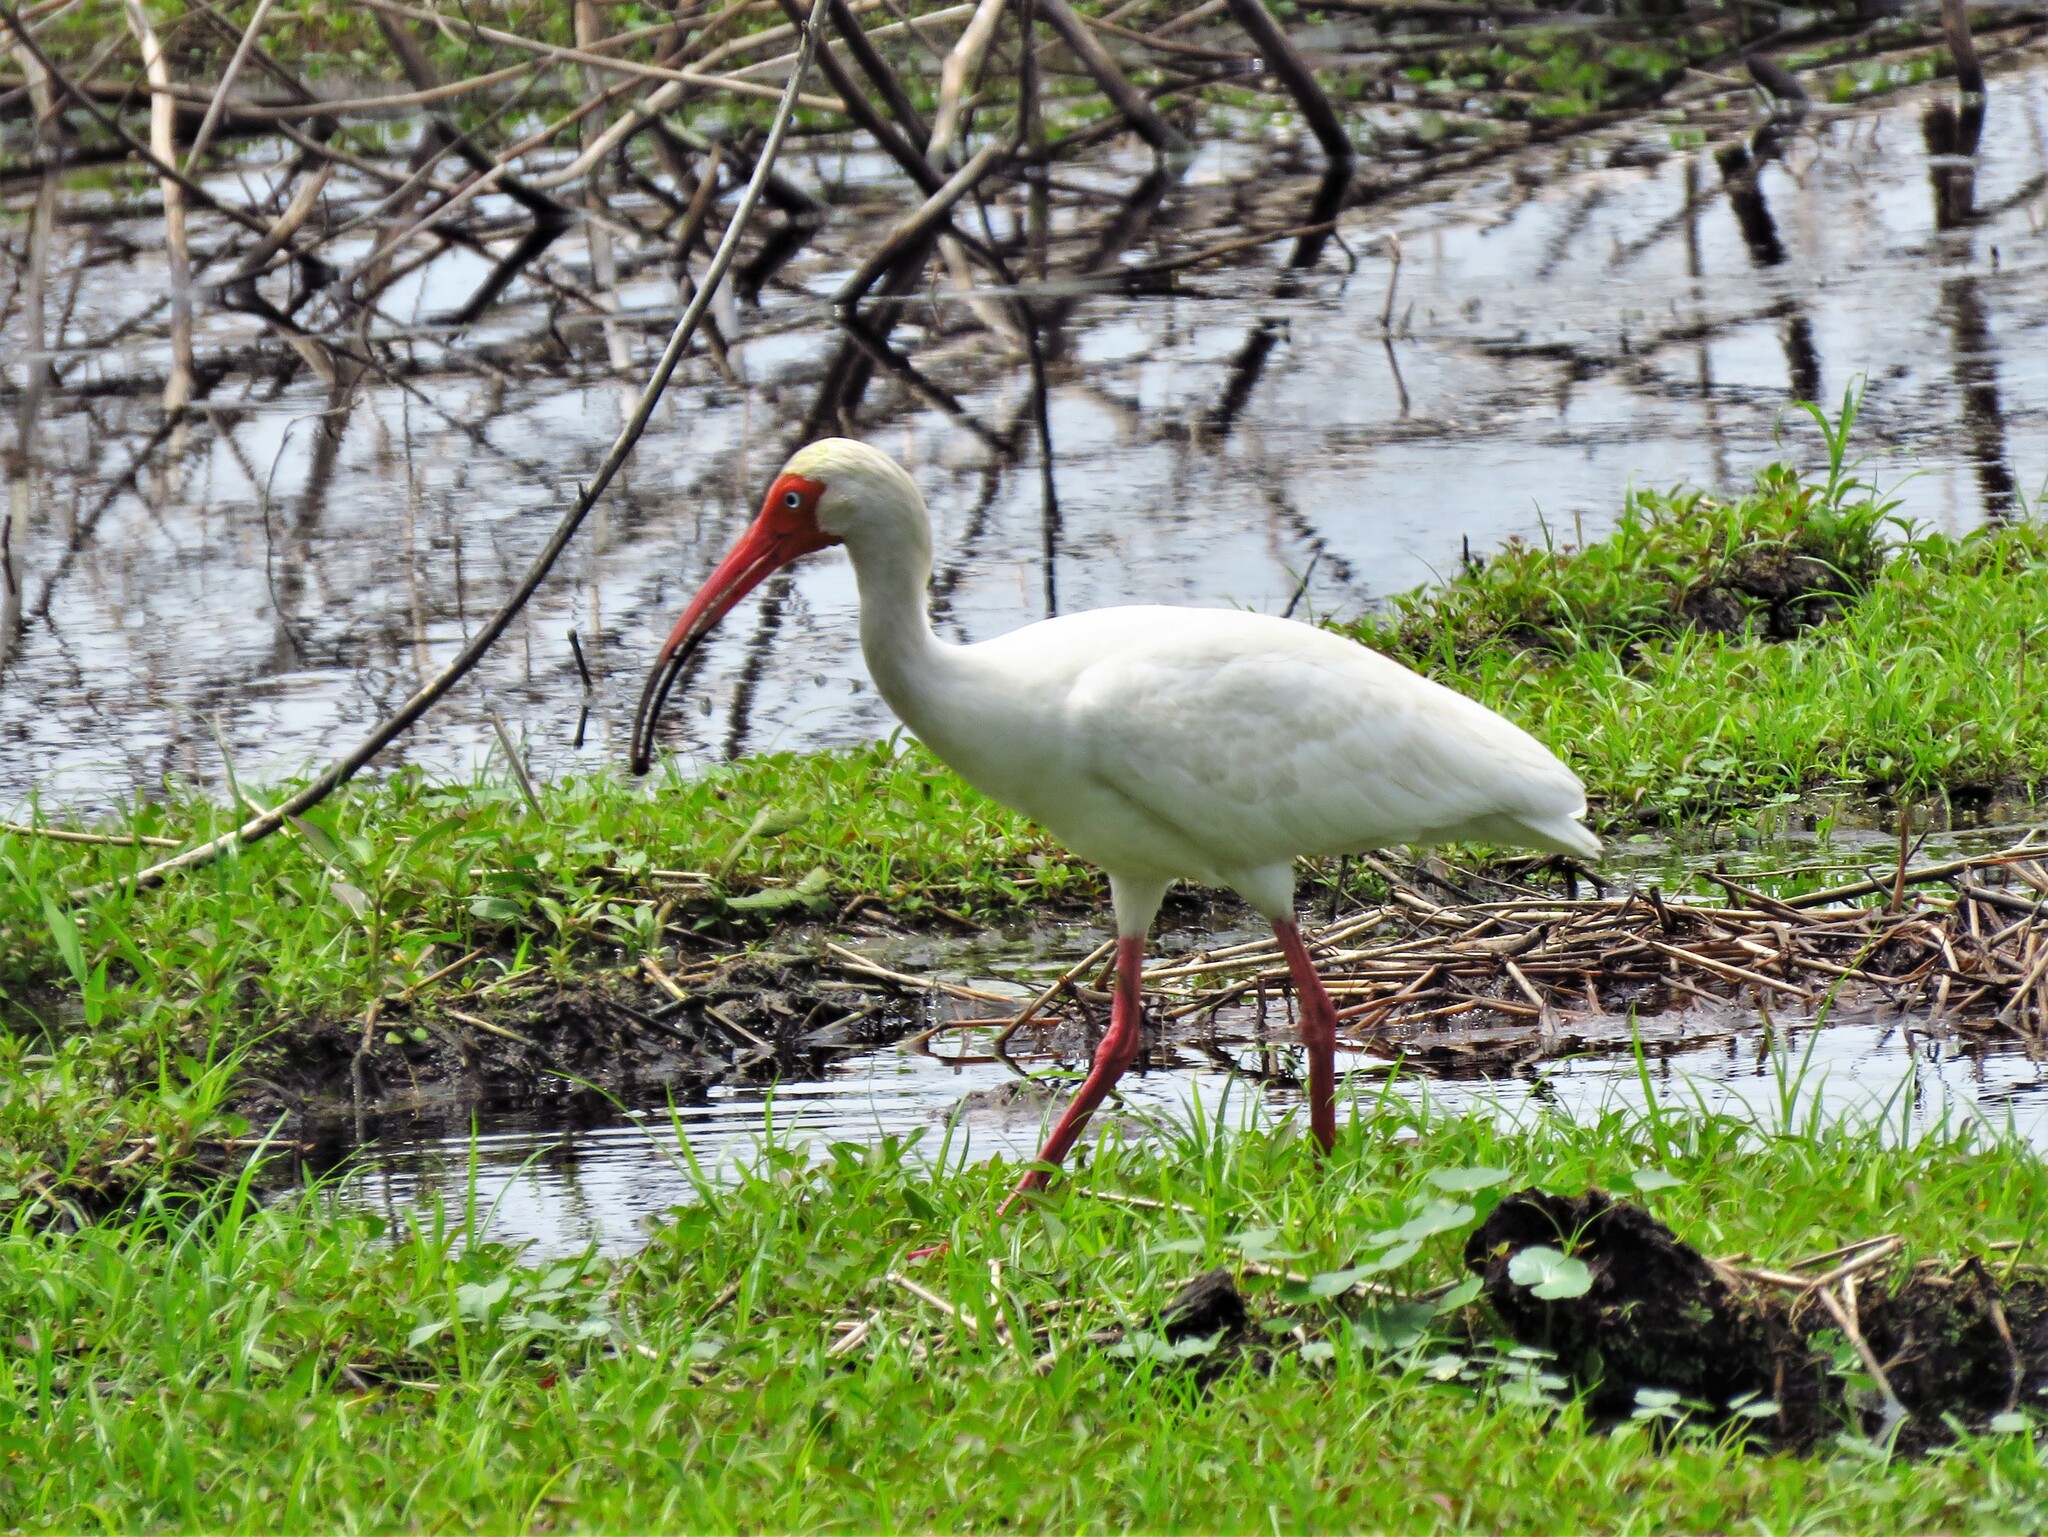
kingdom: Animalia
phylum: Chordata
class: Aves
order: Pelecaniformes
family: Threskiornithidae
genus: Eudocimus
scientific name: Eudocimus albus
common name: White ibis
